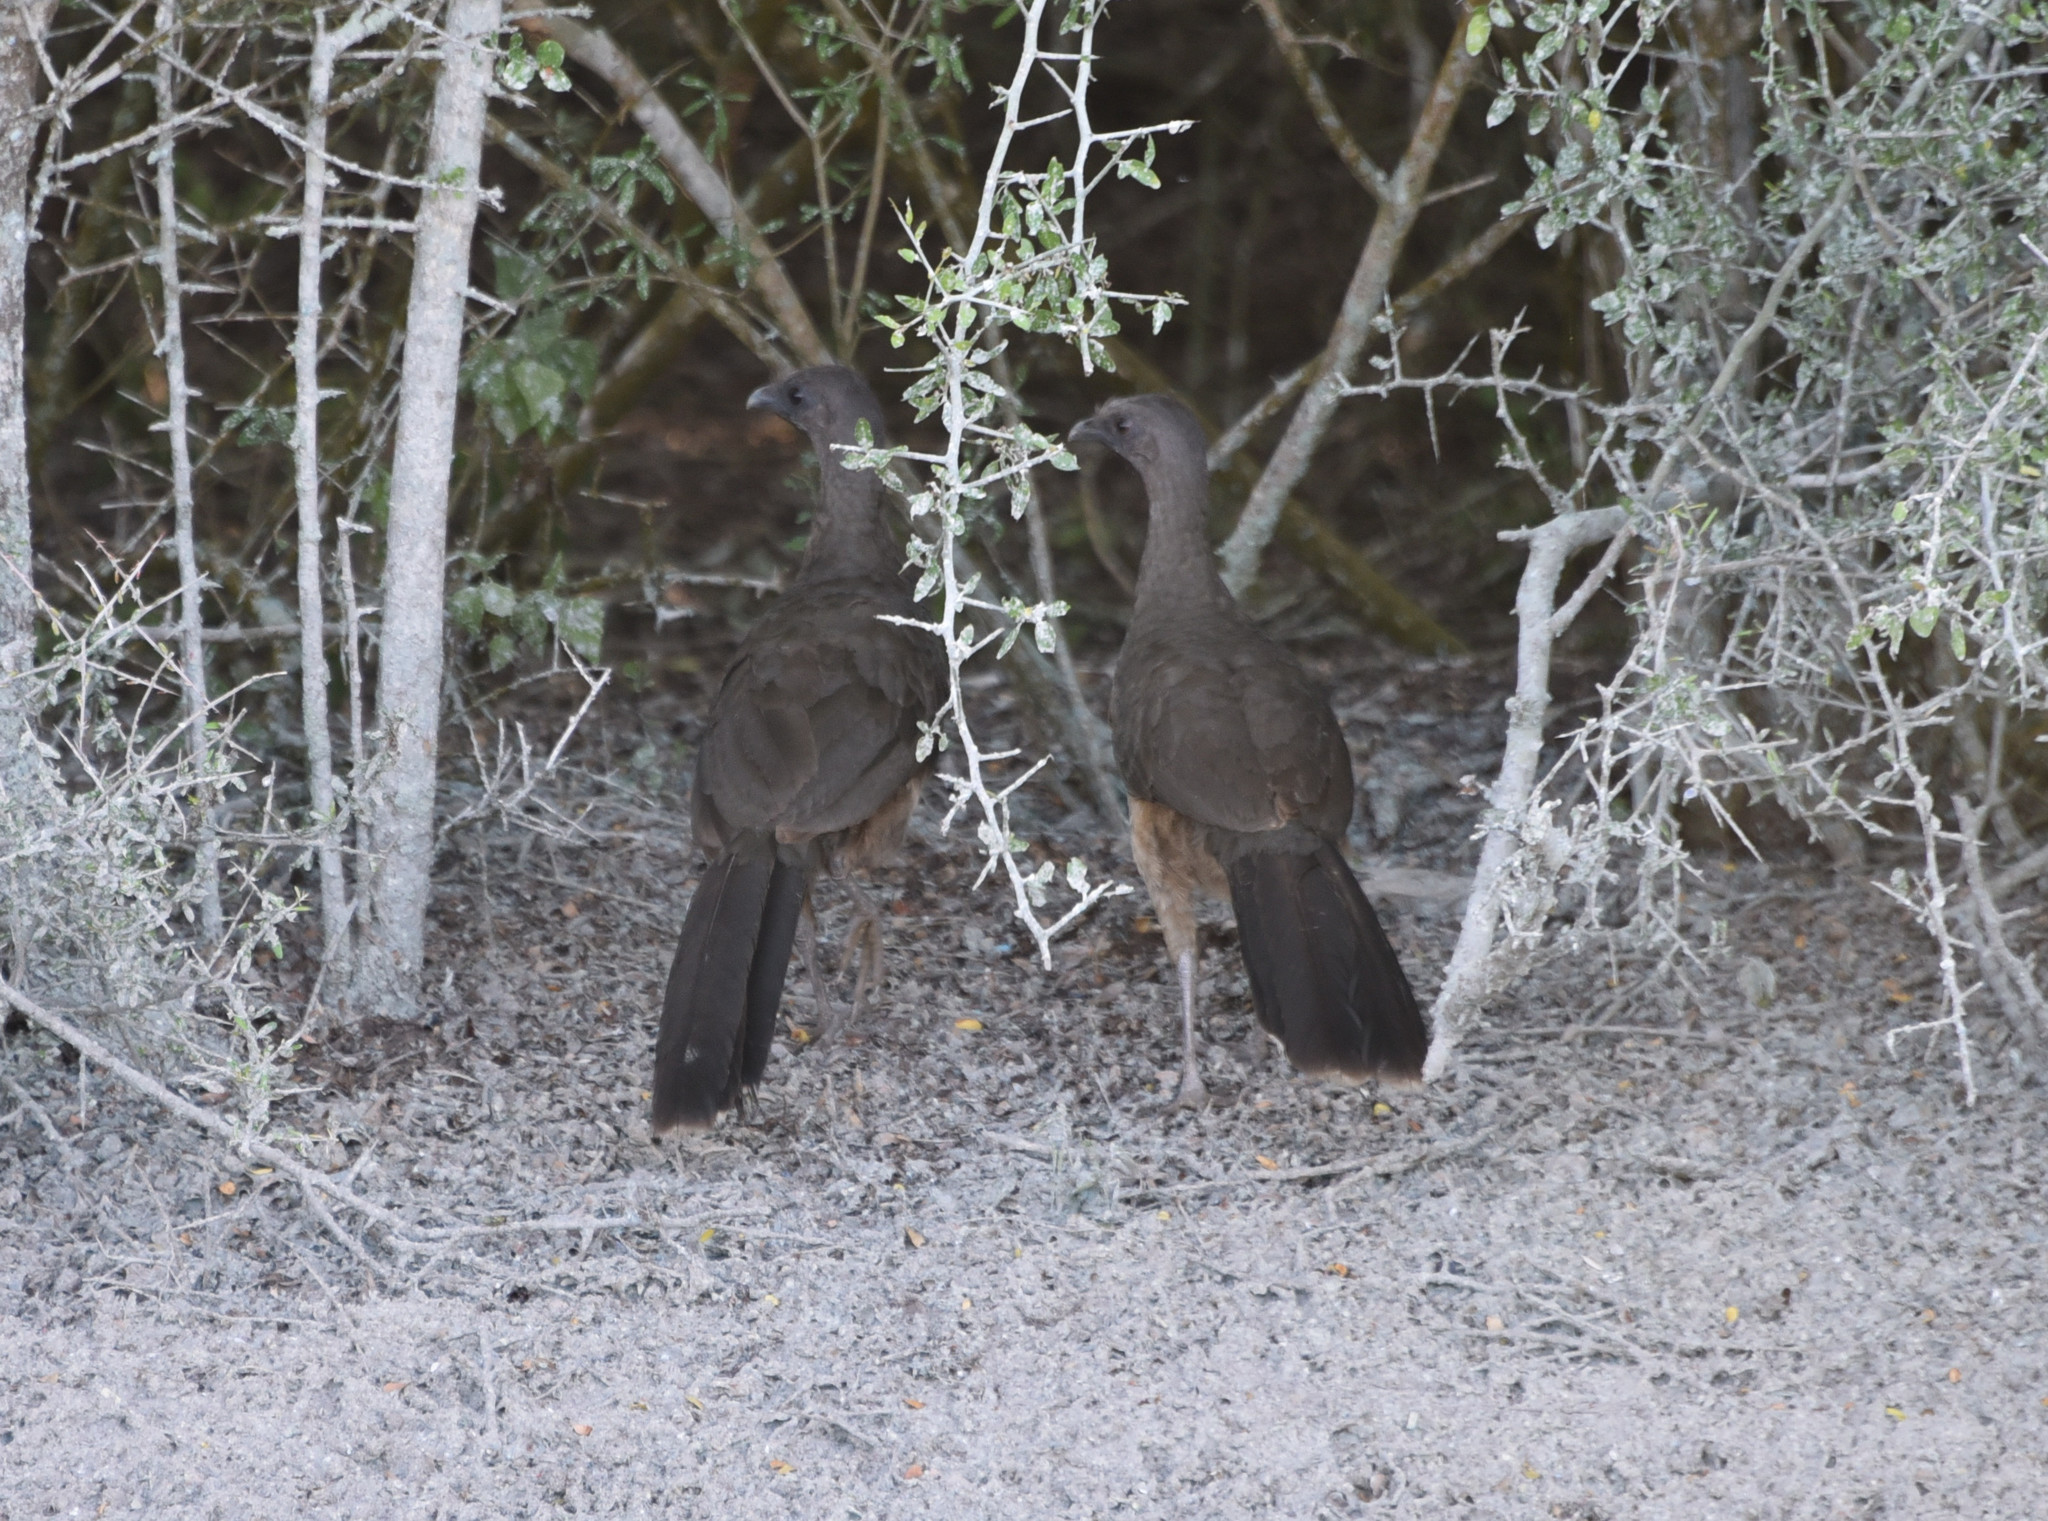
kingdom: Animalia
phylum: Chordata
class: Aves
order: Galliformes
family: Cracidae
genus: Ortalis
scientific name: Ortalis vetula
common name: Plain chachalaca
